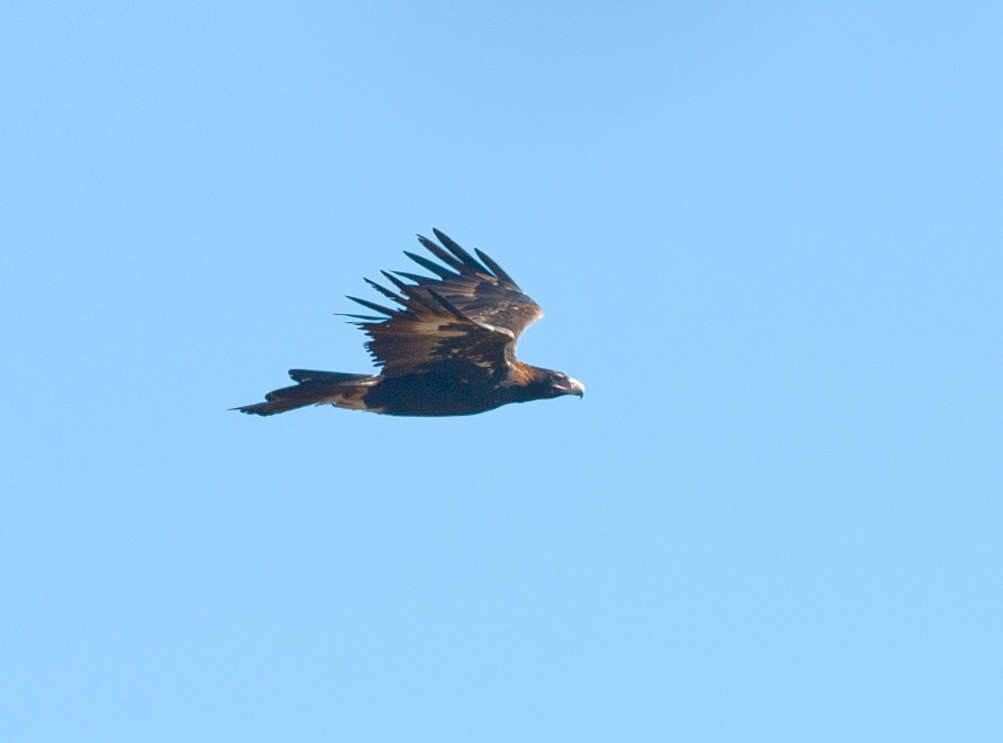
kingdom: Animalia
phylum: Chordata
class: Aves
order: Accipitriformes
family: Accipitridae
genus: Aquila
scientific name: Aquila audax
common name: Wedge-tailed eagle
